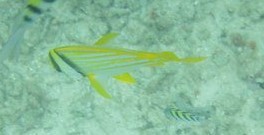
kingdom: Animalia
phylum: Chordata
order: Perciformes
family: Haemulidae
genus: Anisotremus
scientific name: Anisotremus virginicus
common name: Porkfish
